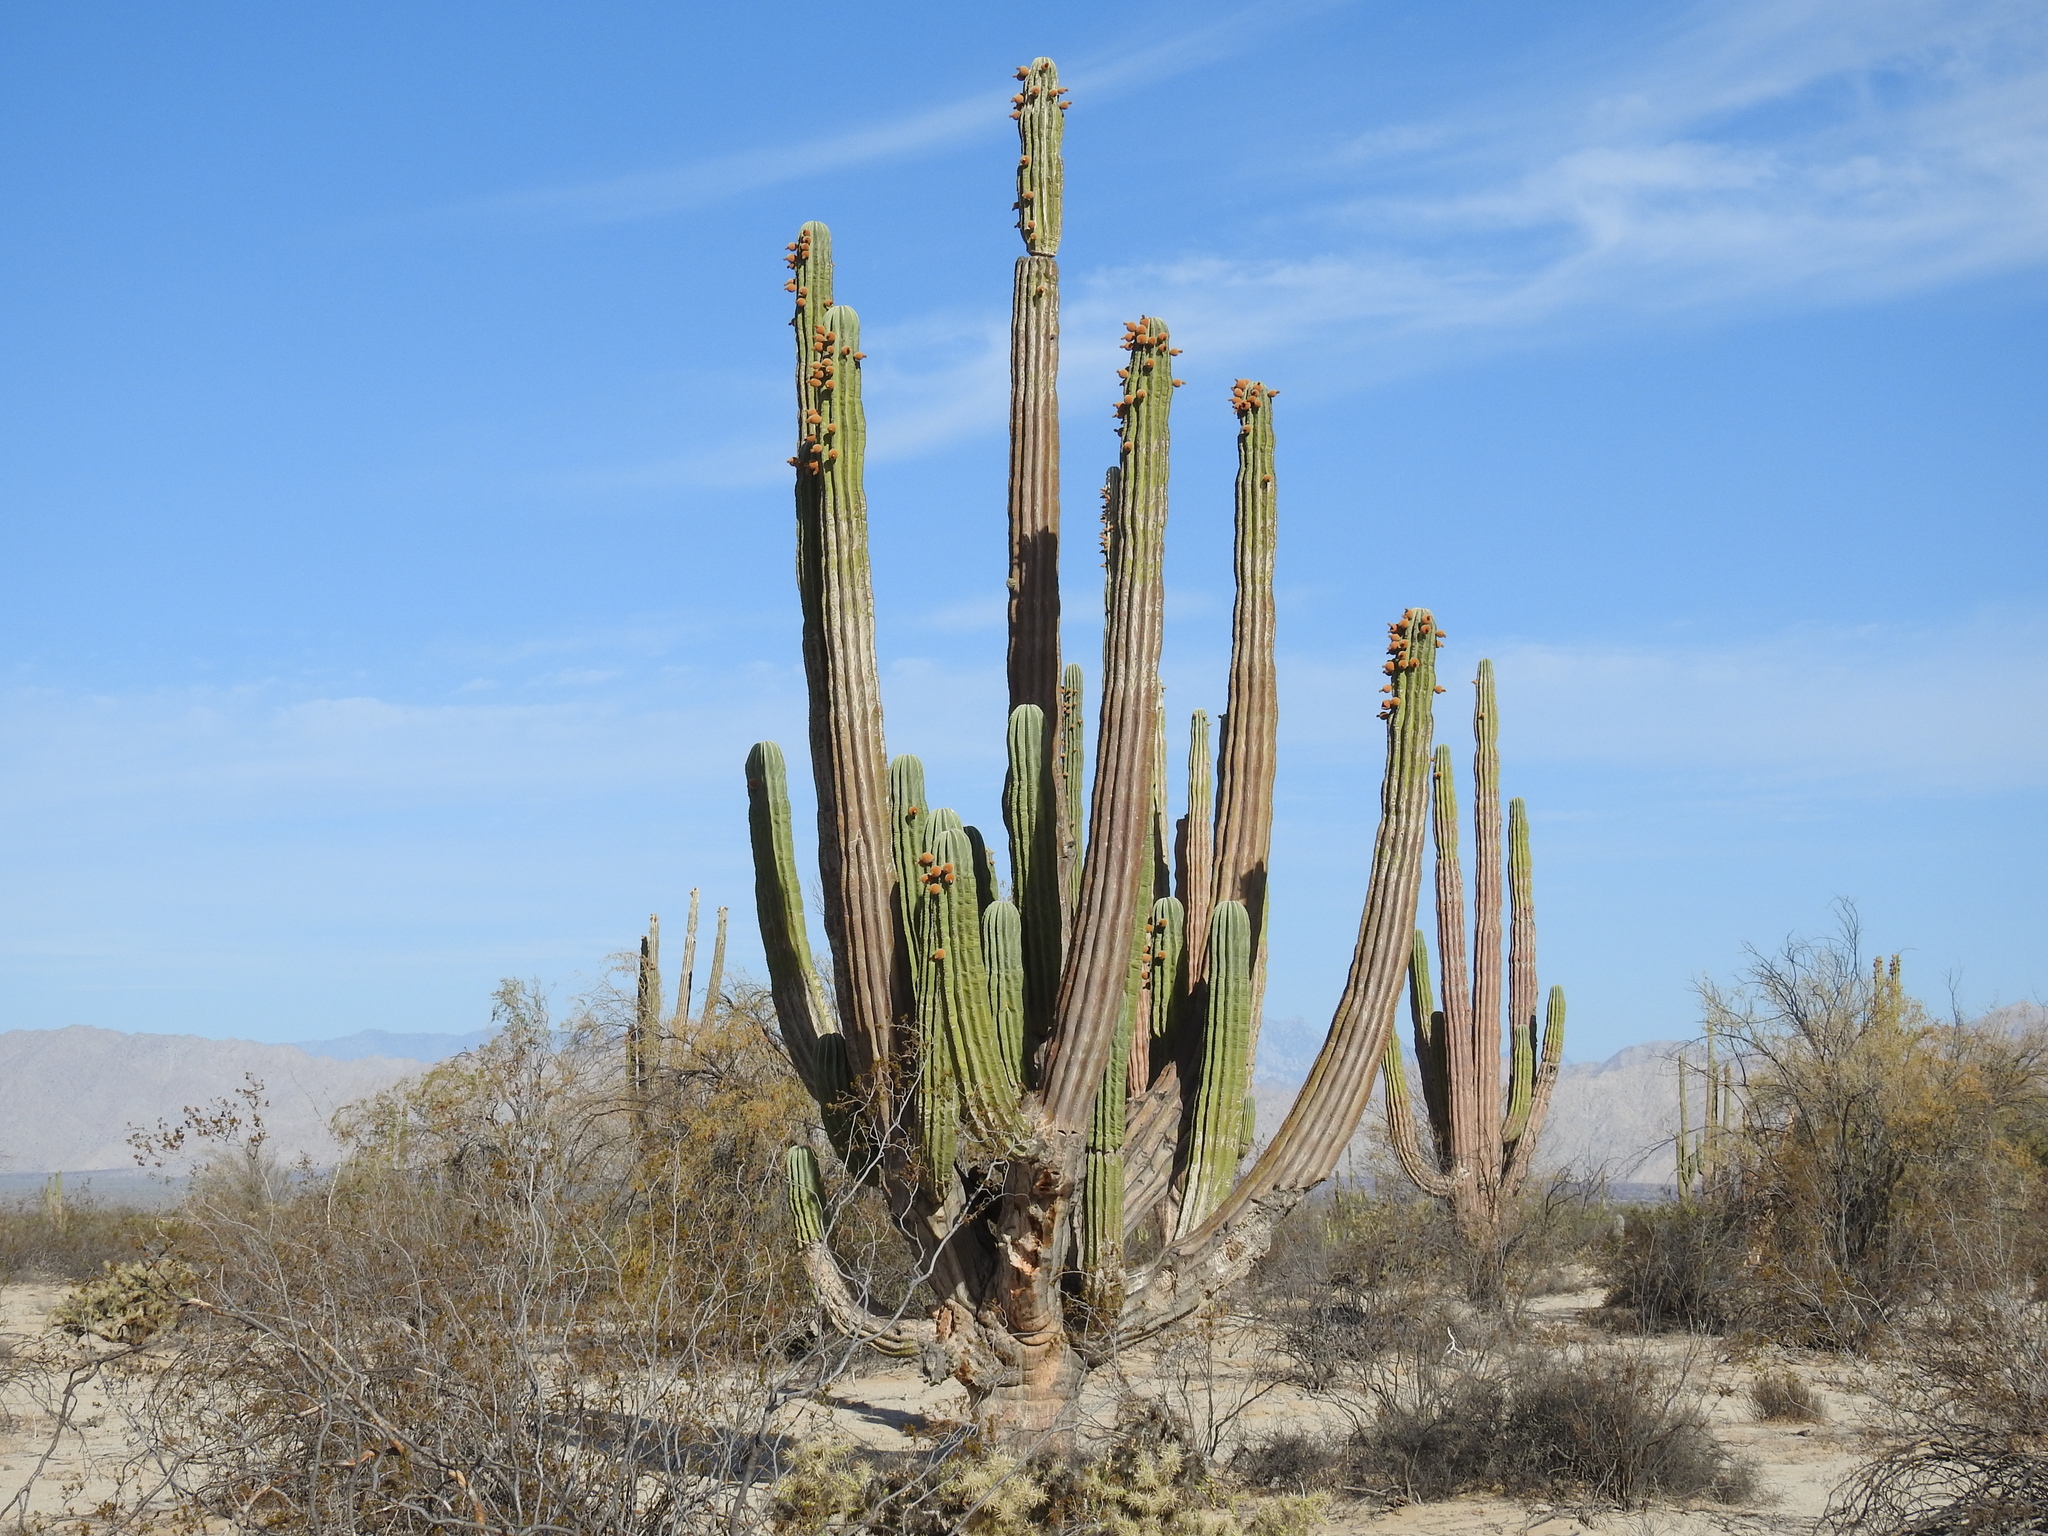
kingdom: Plantae
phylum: Tracheophyta
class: Magnoliopsida
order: Caryophyllales
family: Cactaceae
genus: Pachycereus
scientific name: Pachycereus pringlei
